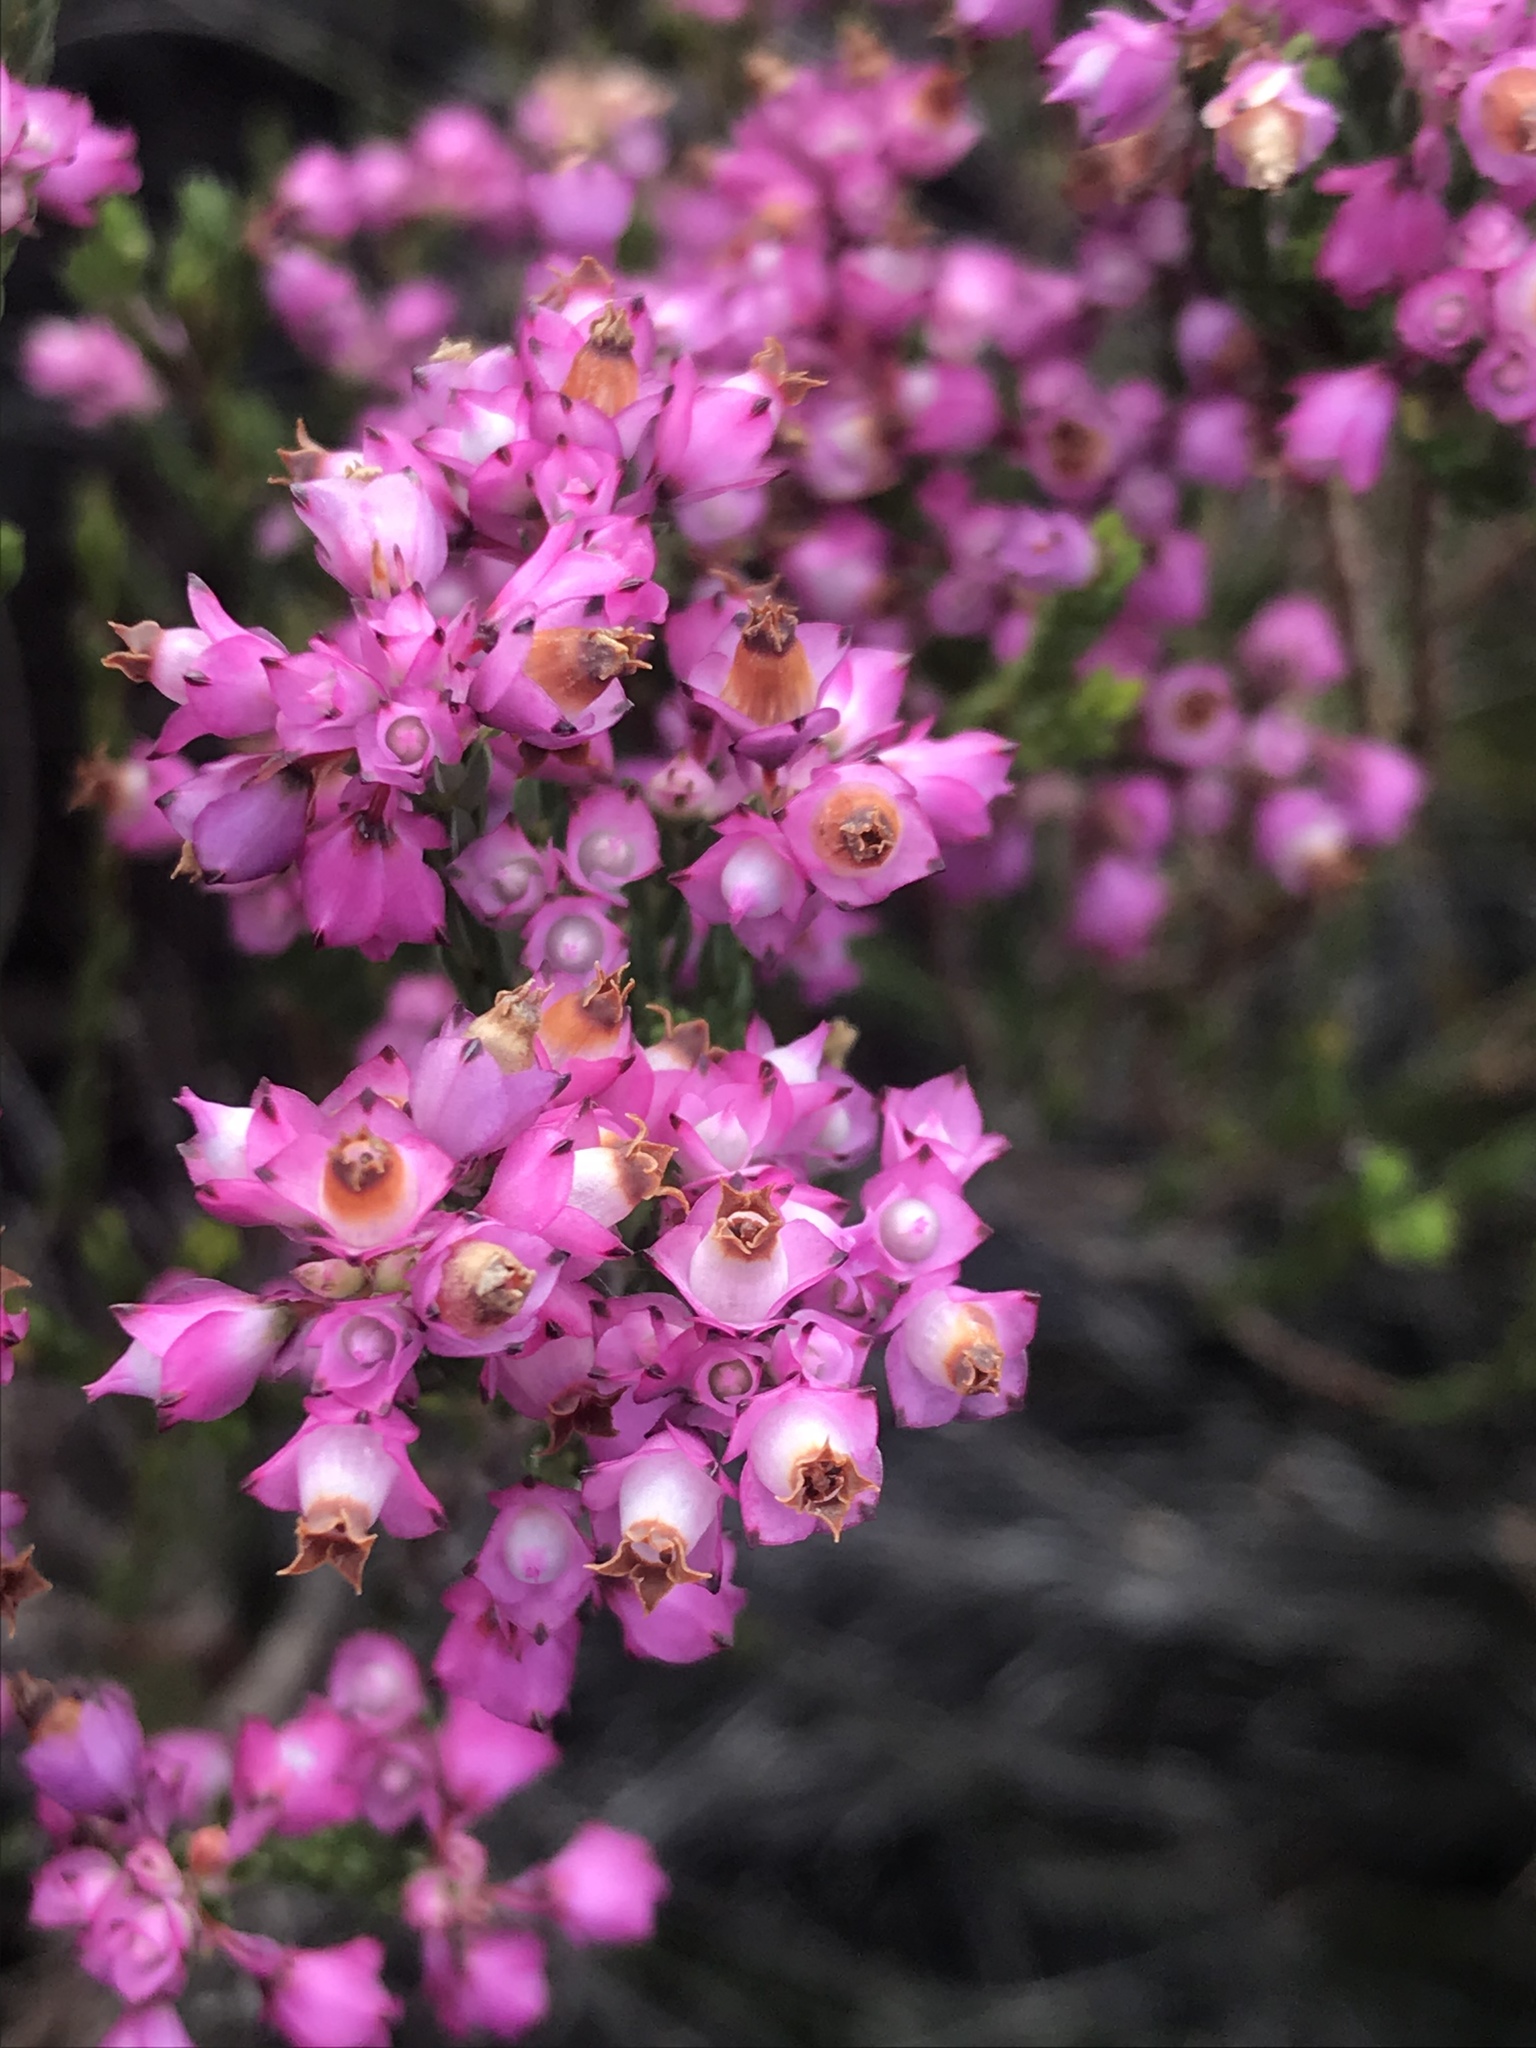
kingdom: Plantae
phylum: Tracheophyta
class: Magnoliopsida
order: Ericales
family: Ericaceae
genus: Erica
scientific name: Erica corifolia
